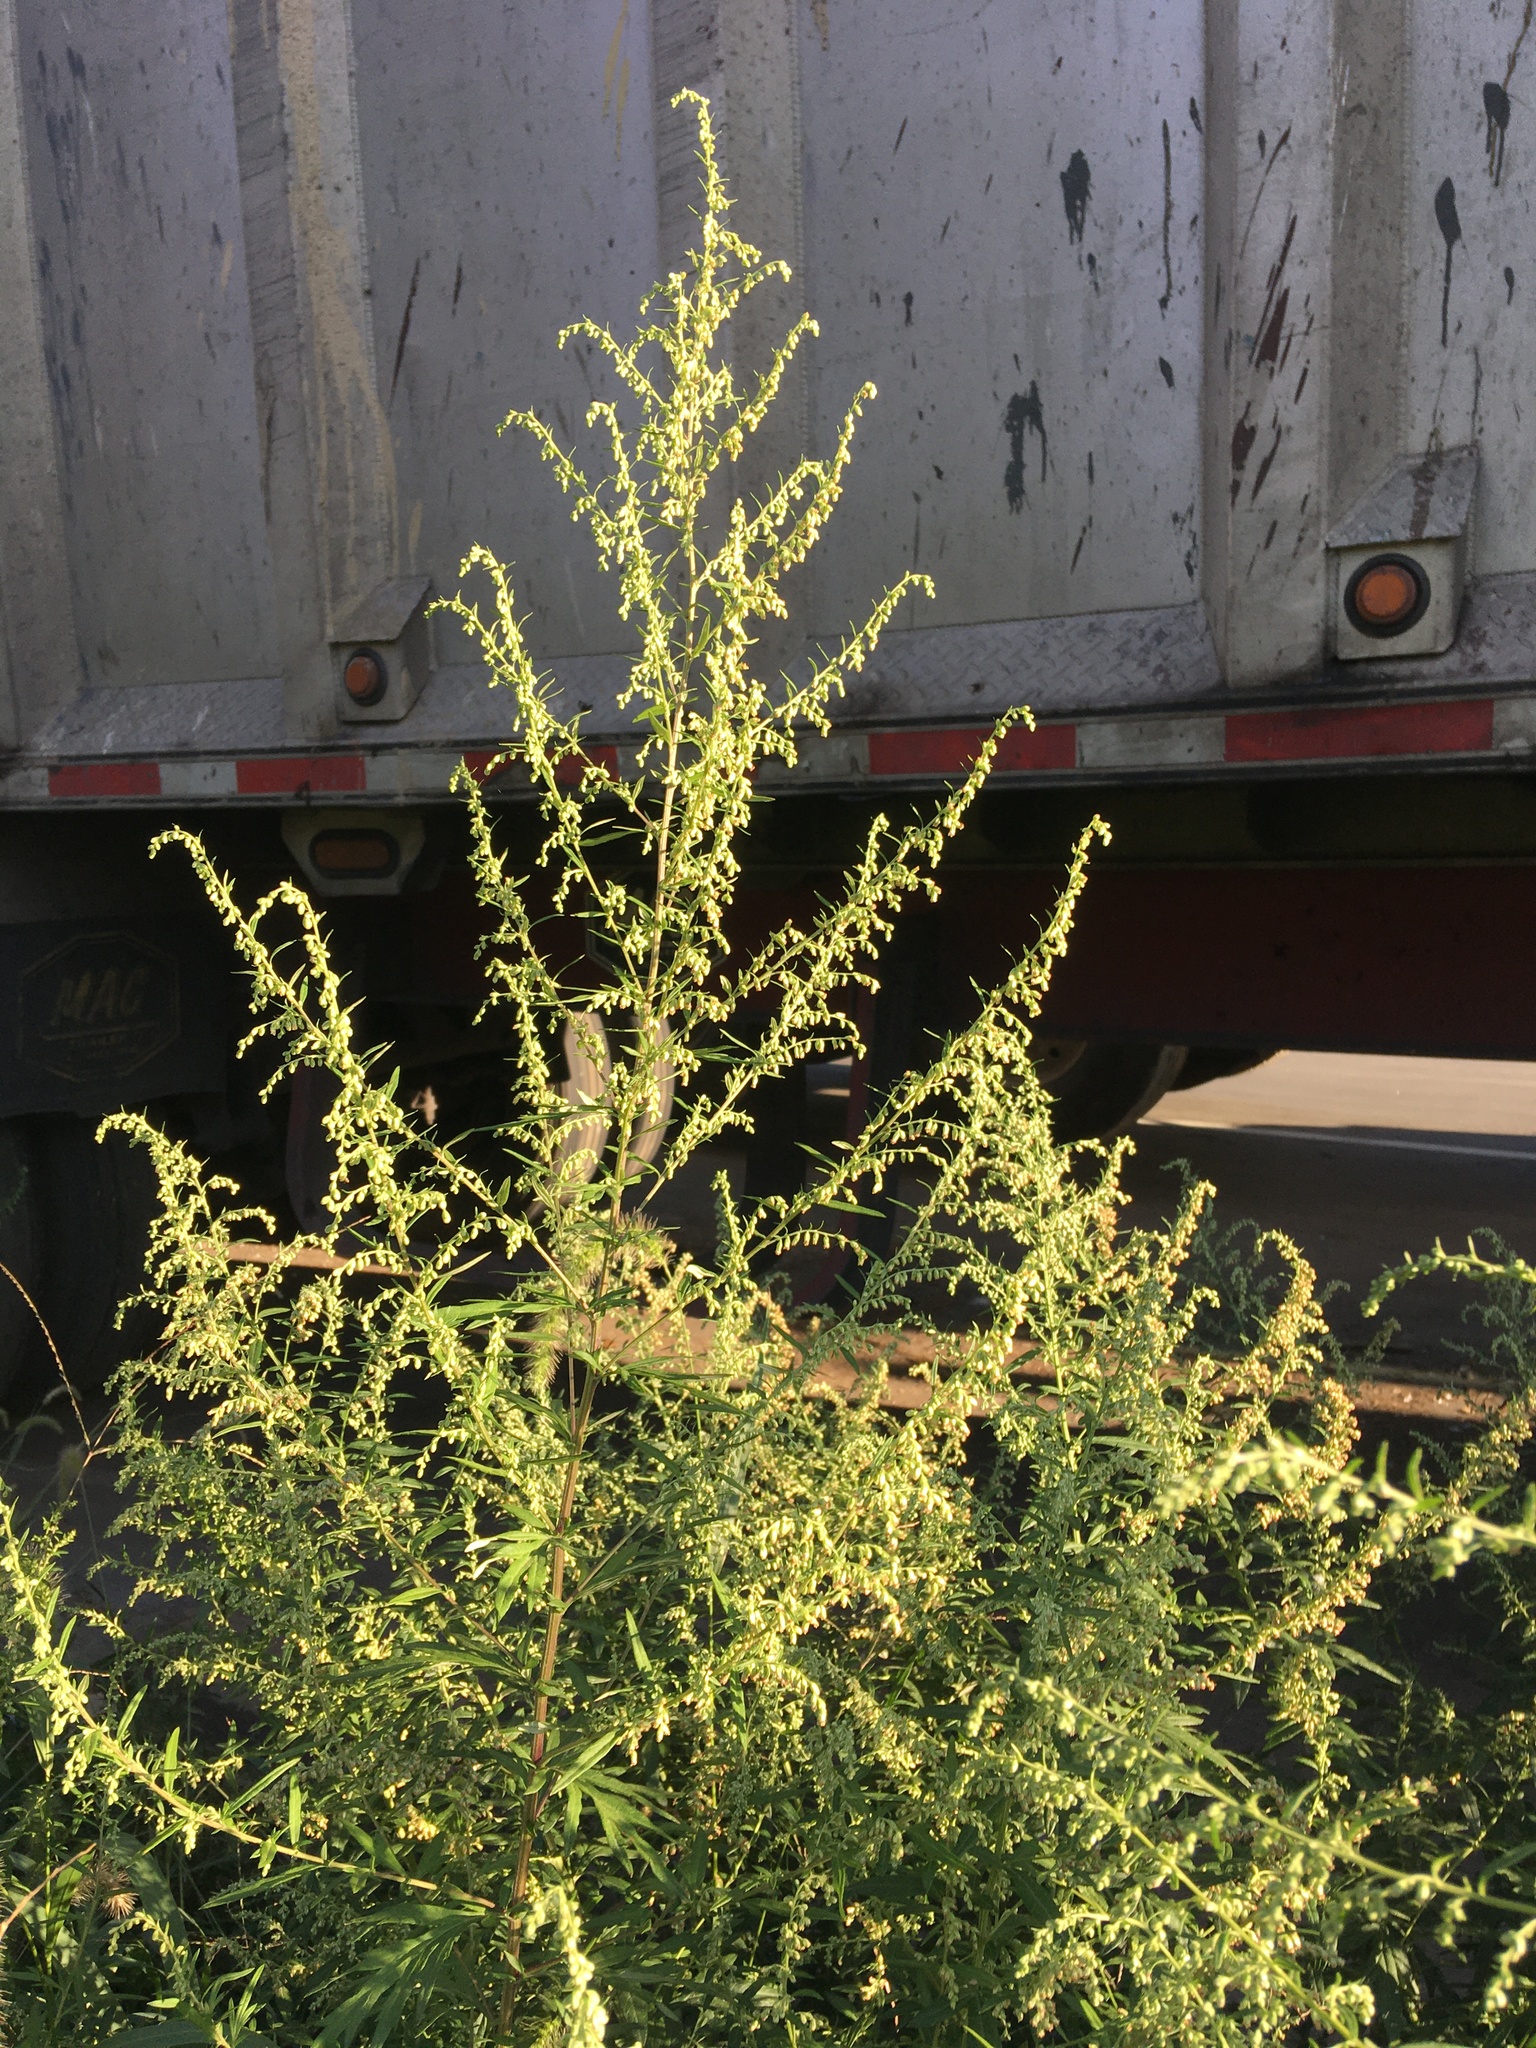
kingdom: Plantae
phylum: Tracheophyta
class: Magnoliopsida
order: Asterales
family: Asteraceae
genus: Artemisia
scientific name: Artemisia vulgaris
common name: Mugwort
